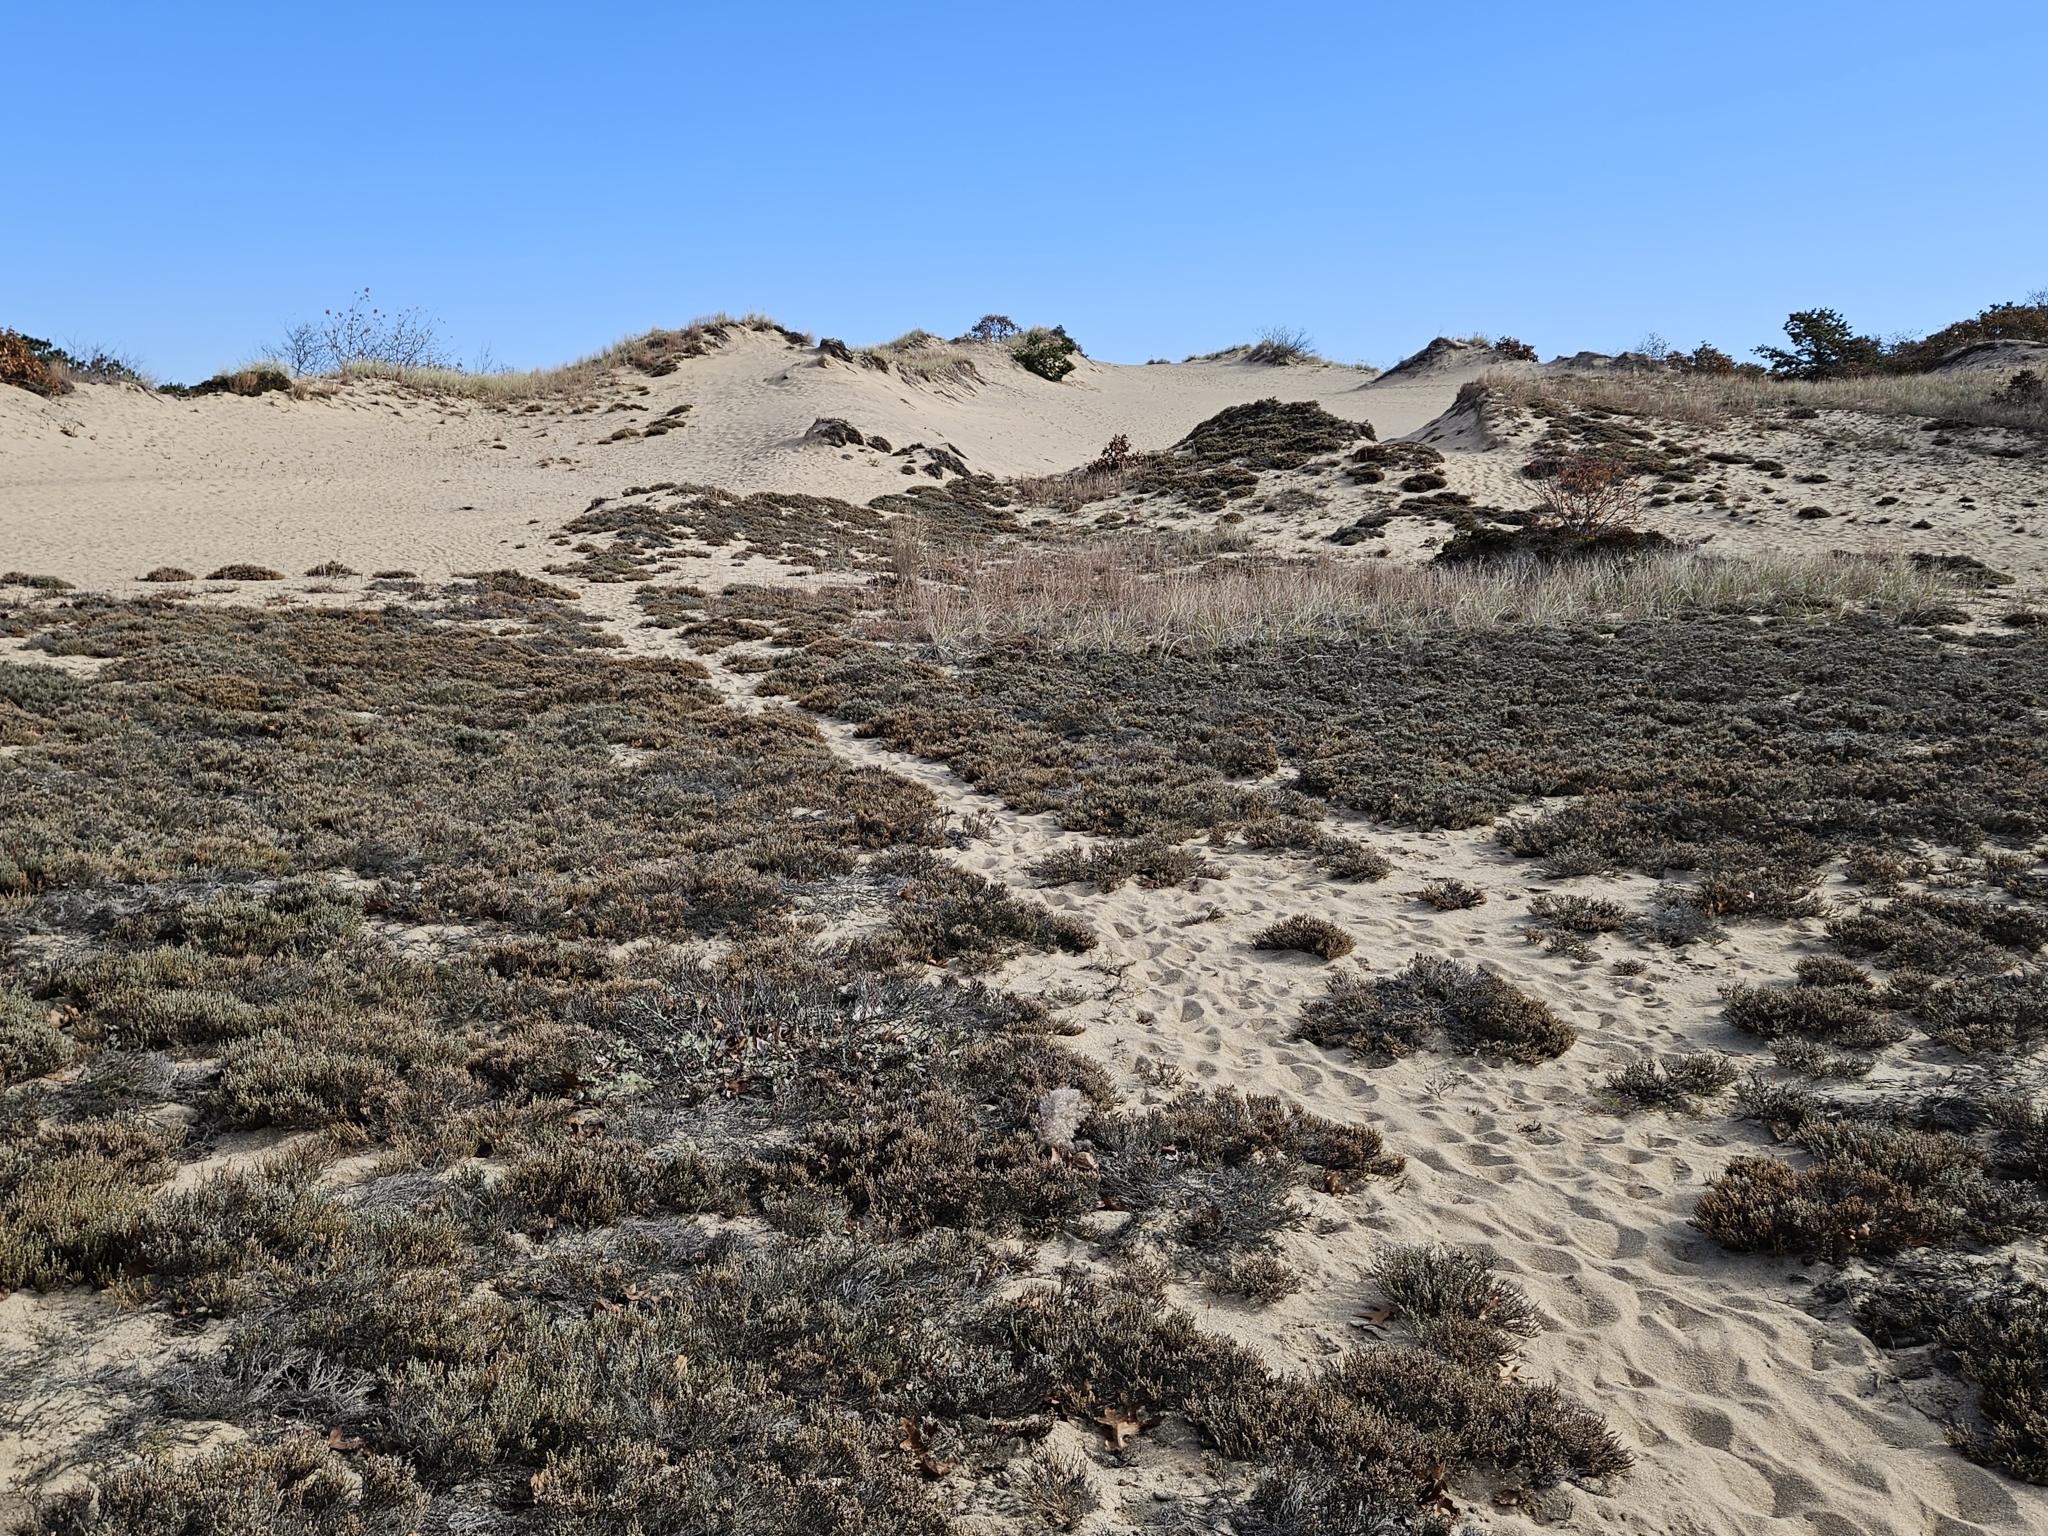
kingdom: Plantae
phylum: Tracheophyta
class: Magnoliopsida
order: Malvales
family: Cistaceae
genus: Hudsonia
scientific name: Hudsonia tomentosa
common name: Beach-heath
